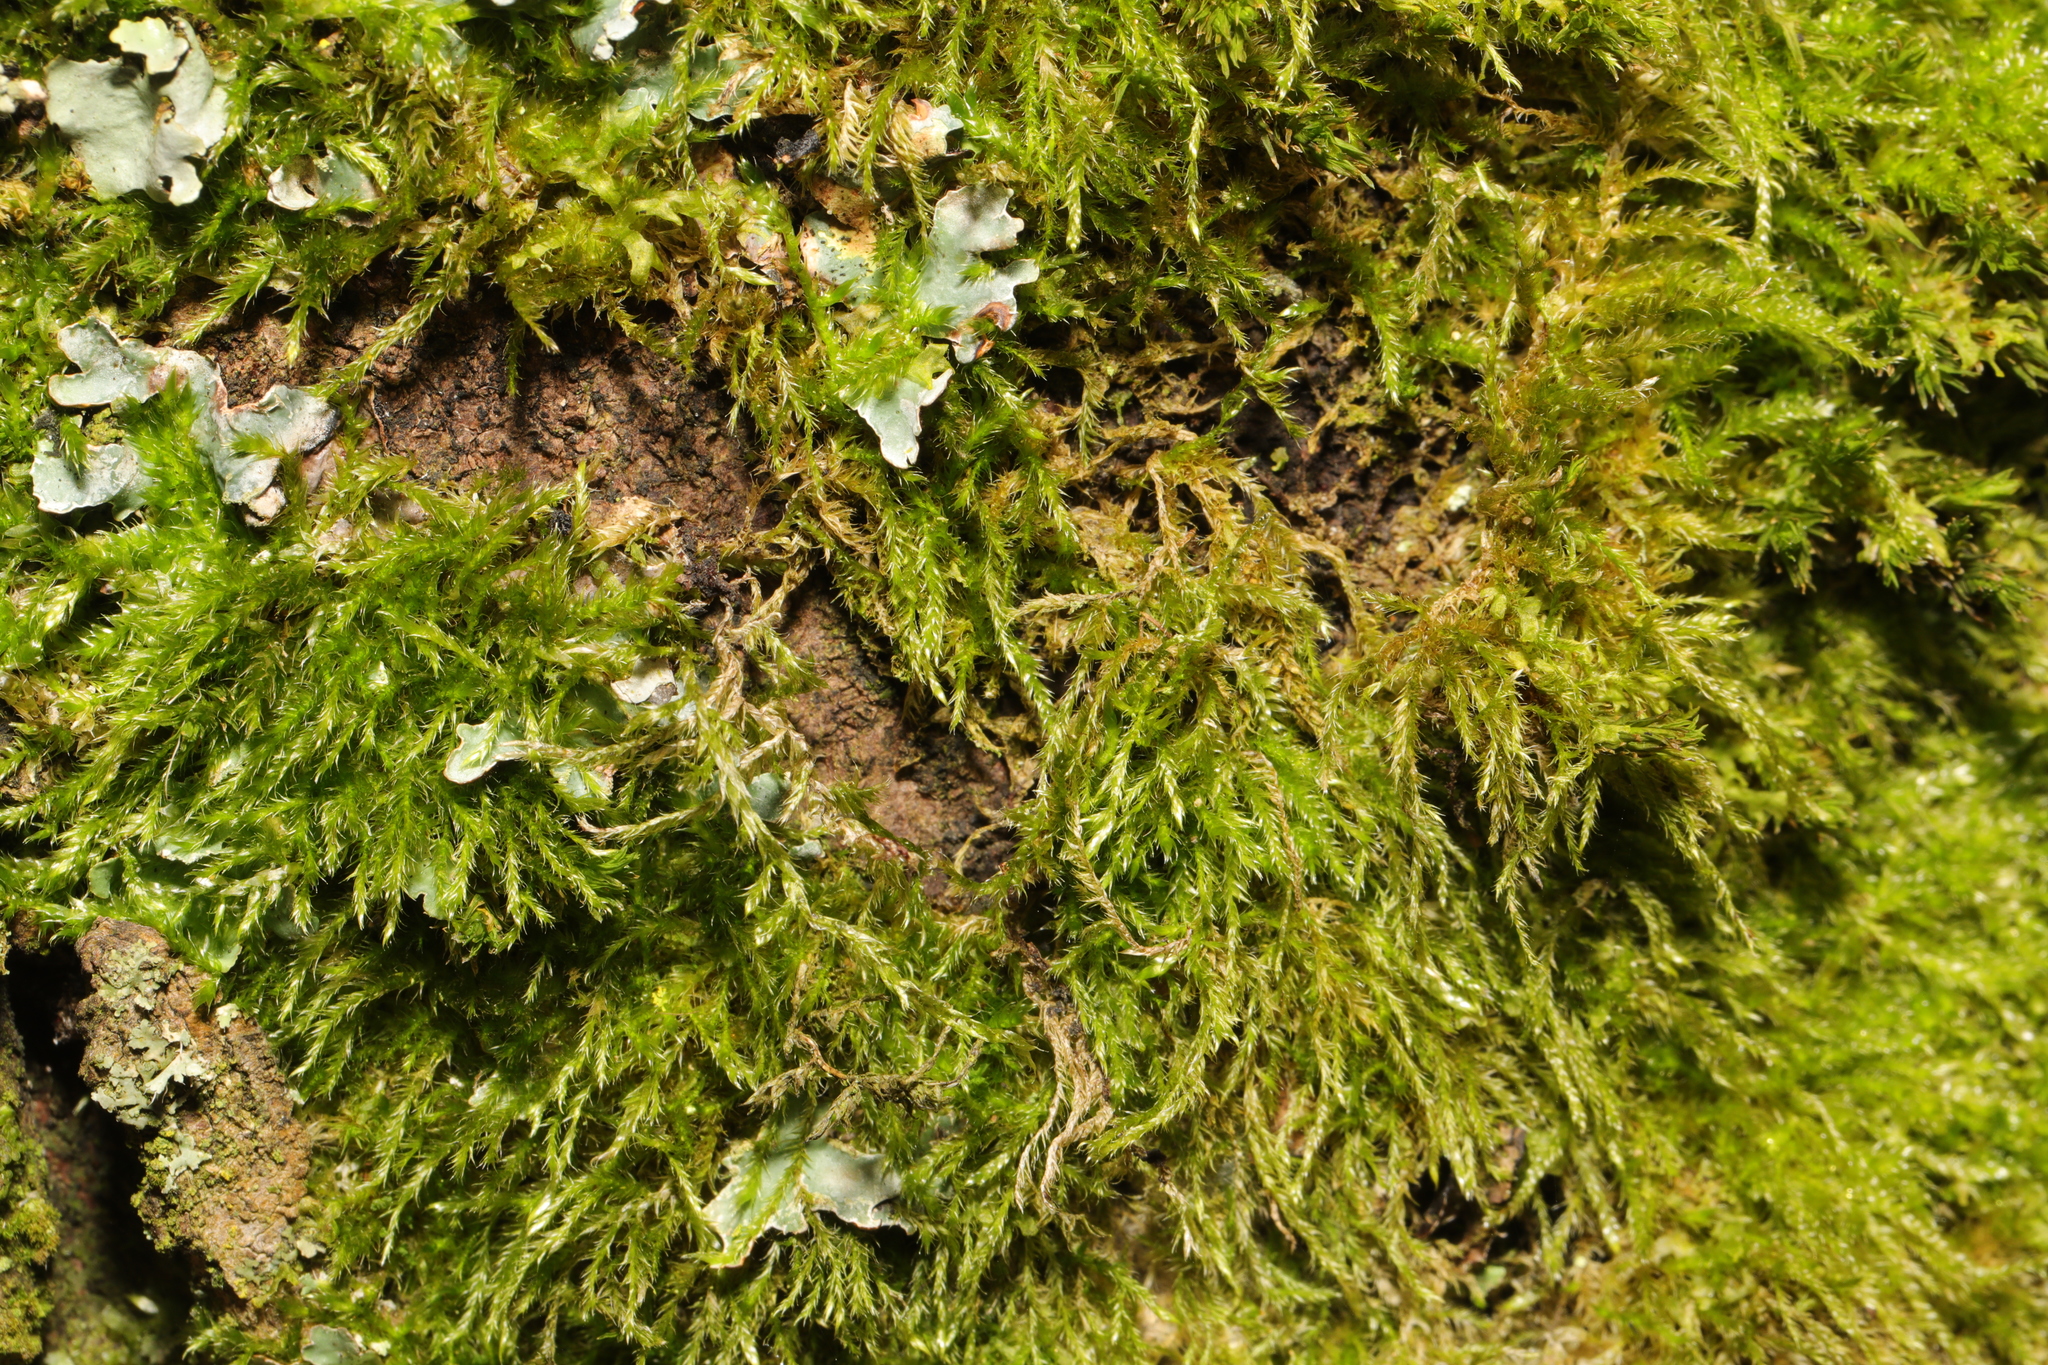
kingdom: Plantae
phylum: Bryophyta
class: Bryopsida
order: Hypnales
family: Amblystegiaceae
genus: Amblystegium
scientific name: Amblystegium serpens
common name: Jurkatzka's feather moss
